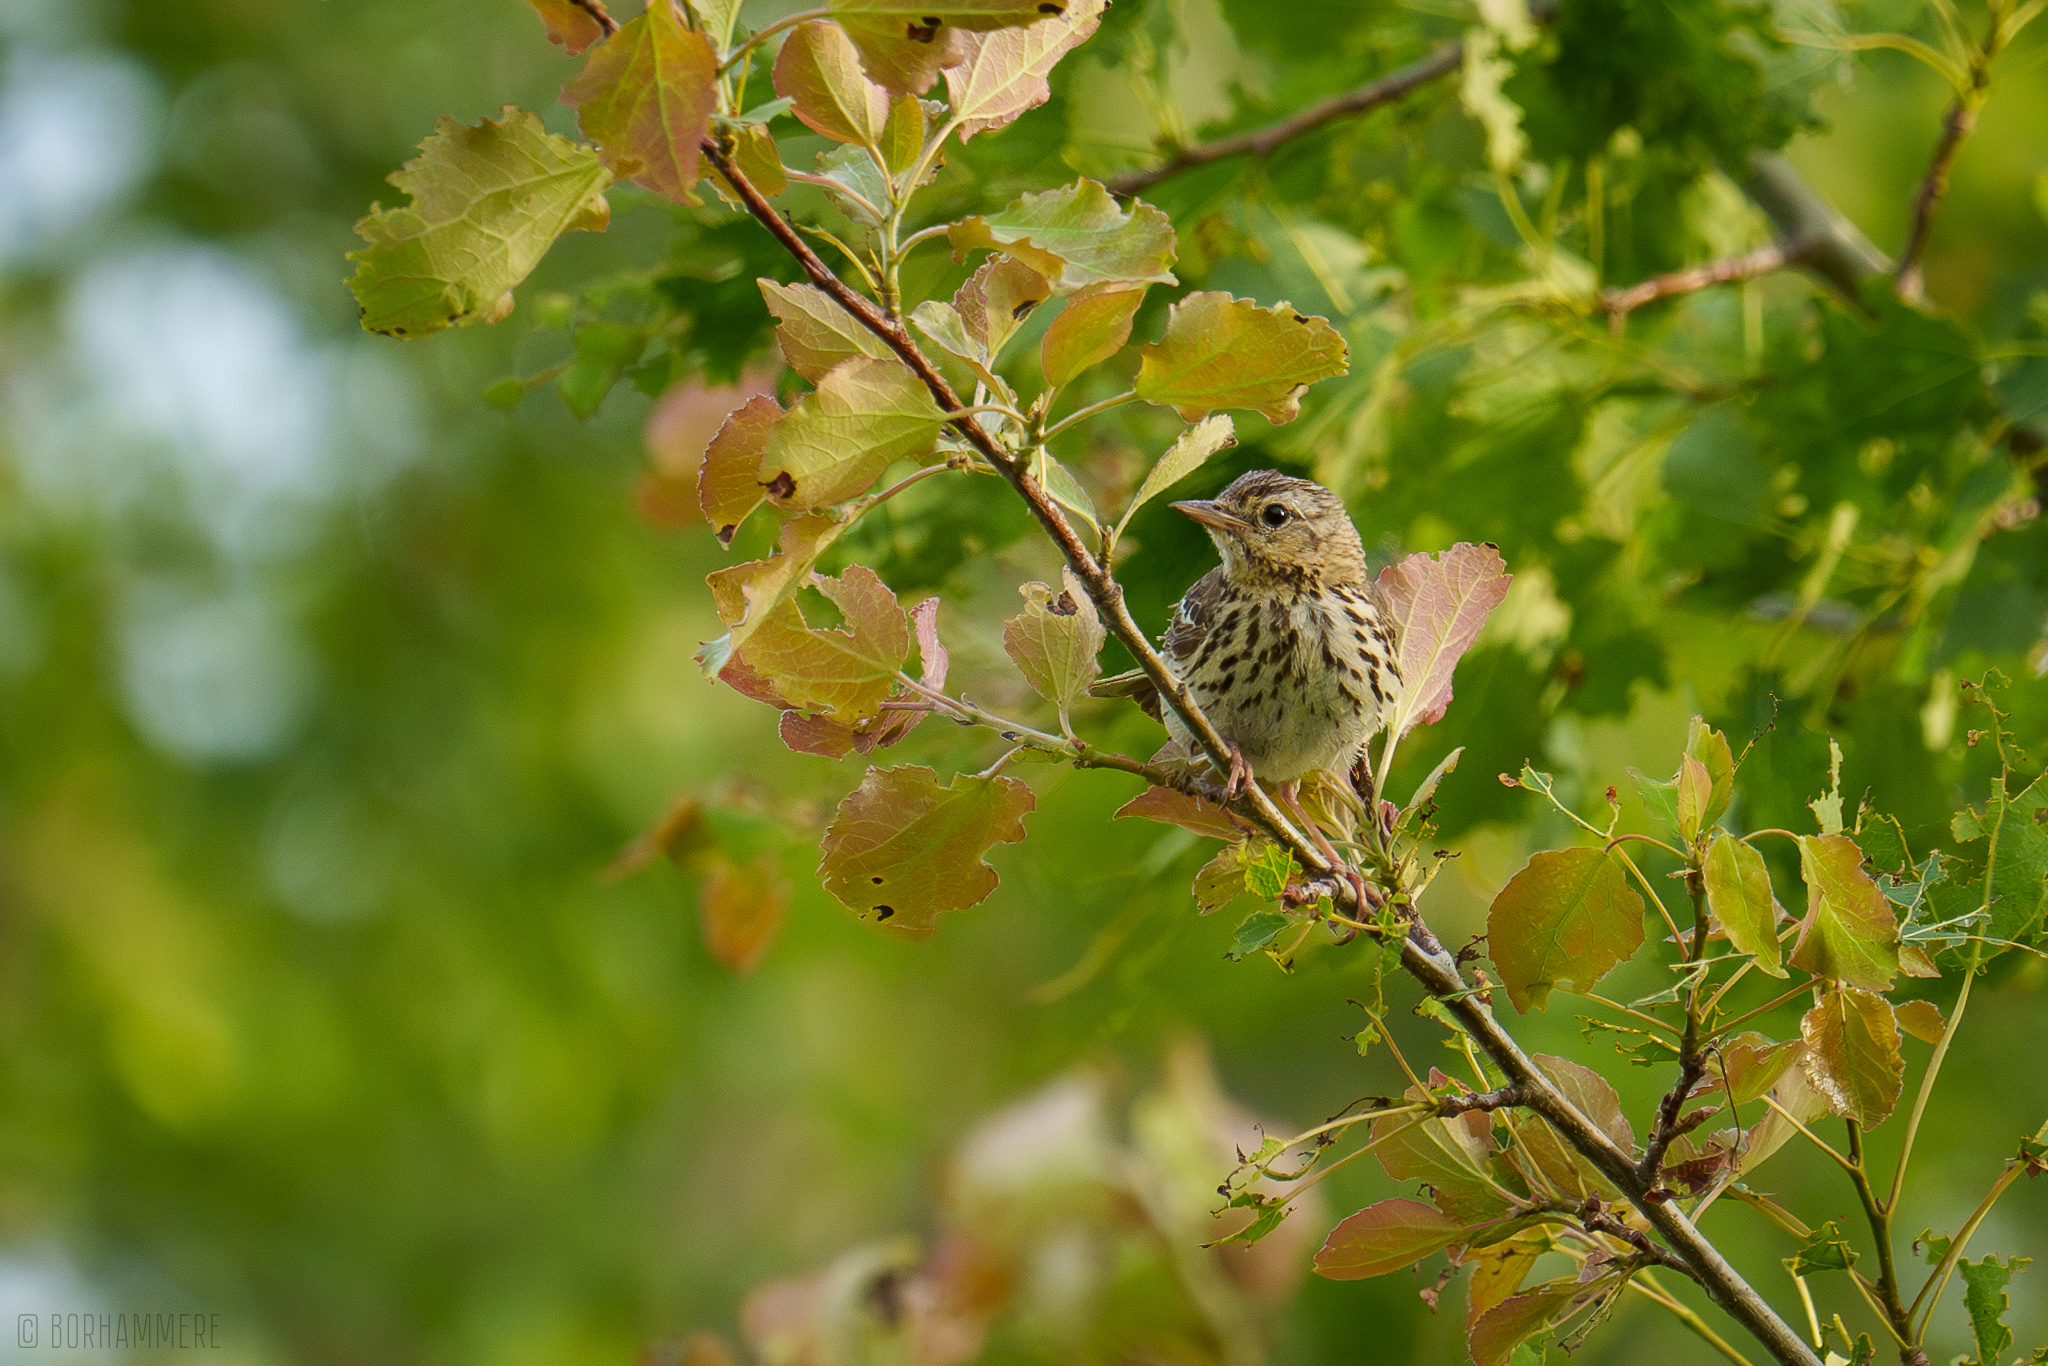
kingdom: Animalia
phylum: Chordata
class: Aves
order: Passeriformes
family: Motacillidae
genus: Anthus
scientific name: Anthus trivialis
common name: Tree pipit
